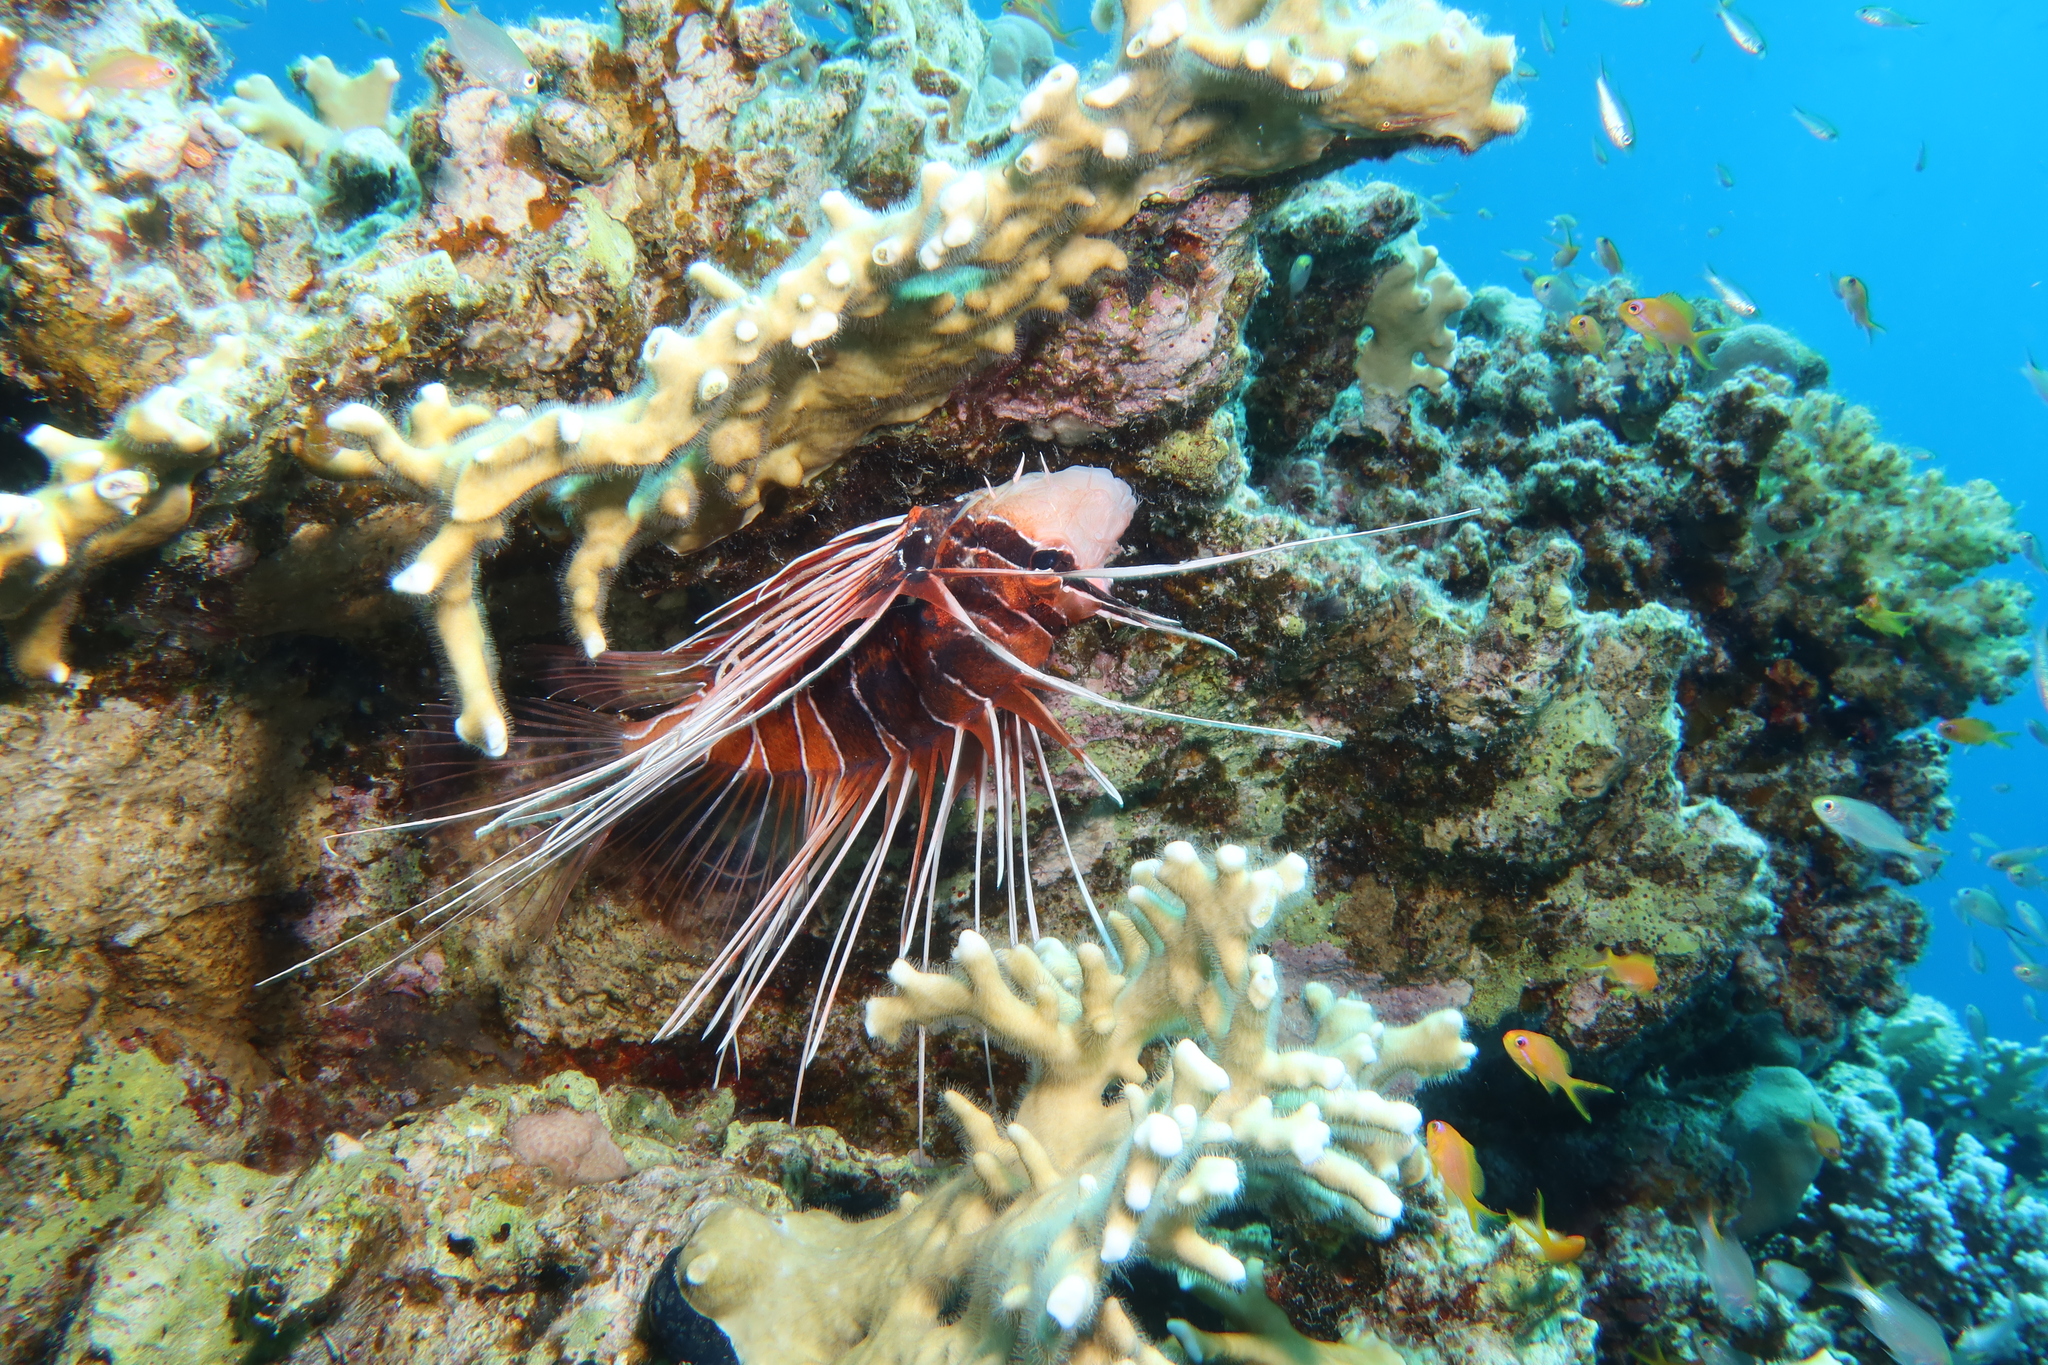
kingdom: Animalia
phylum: Chordata
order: Scorpaeniformes
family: Scorpaenidae
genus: Pterois
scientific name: Pterois cincta
